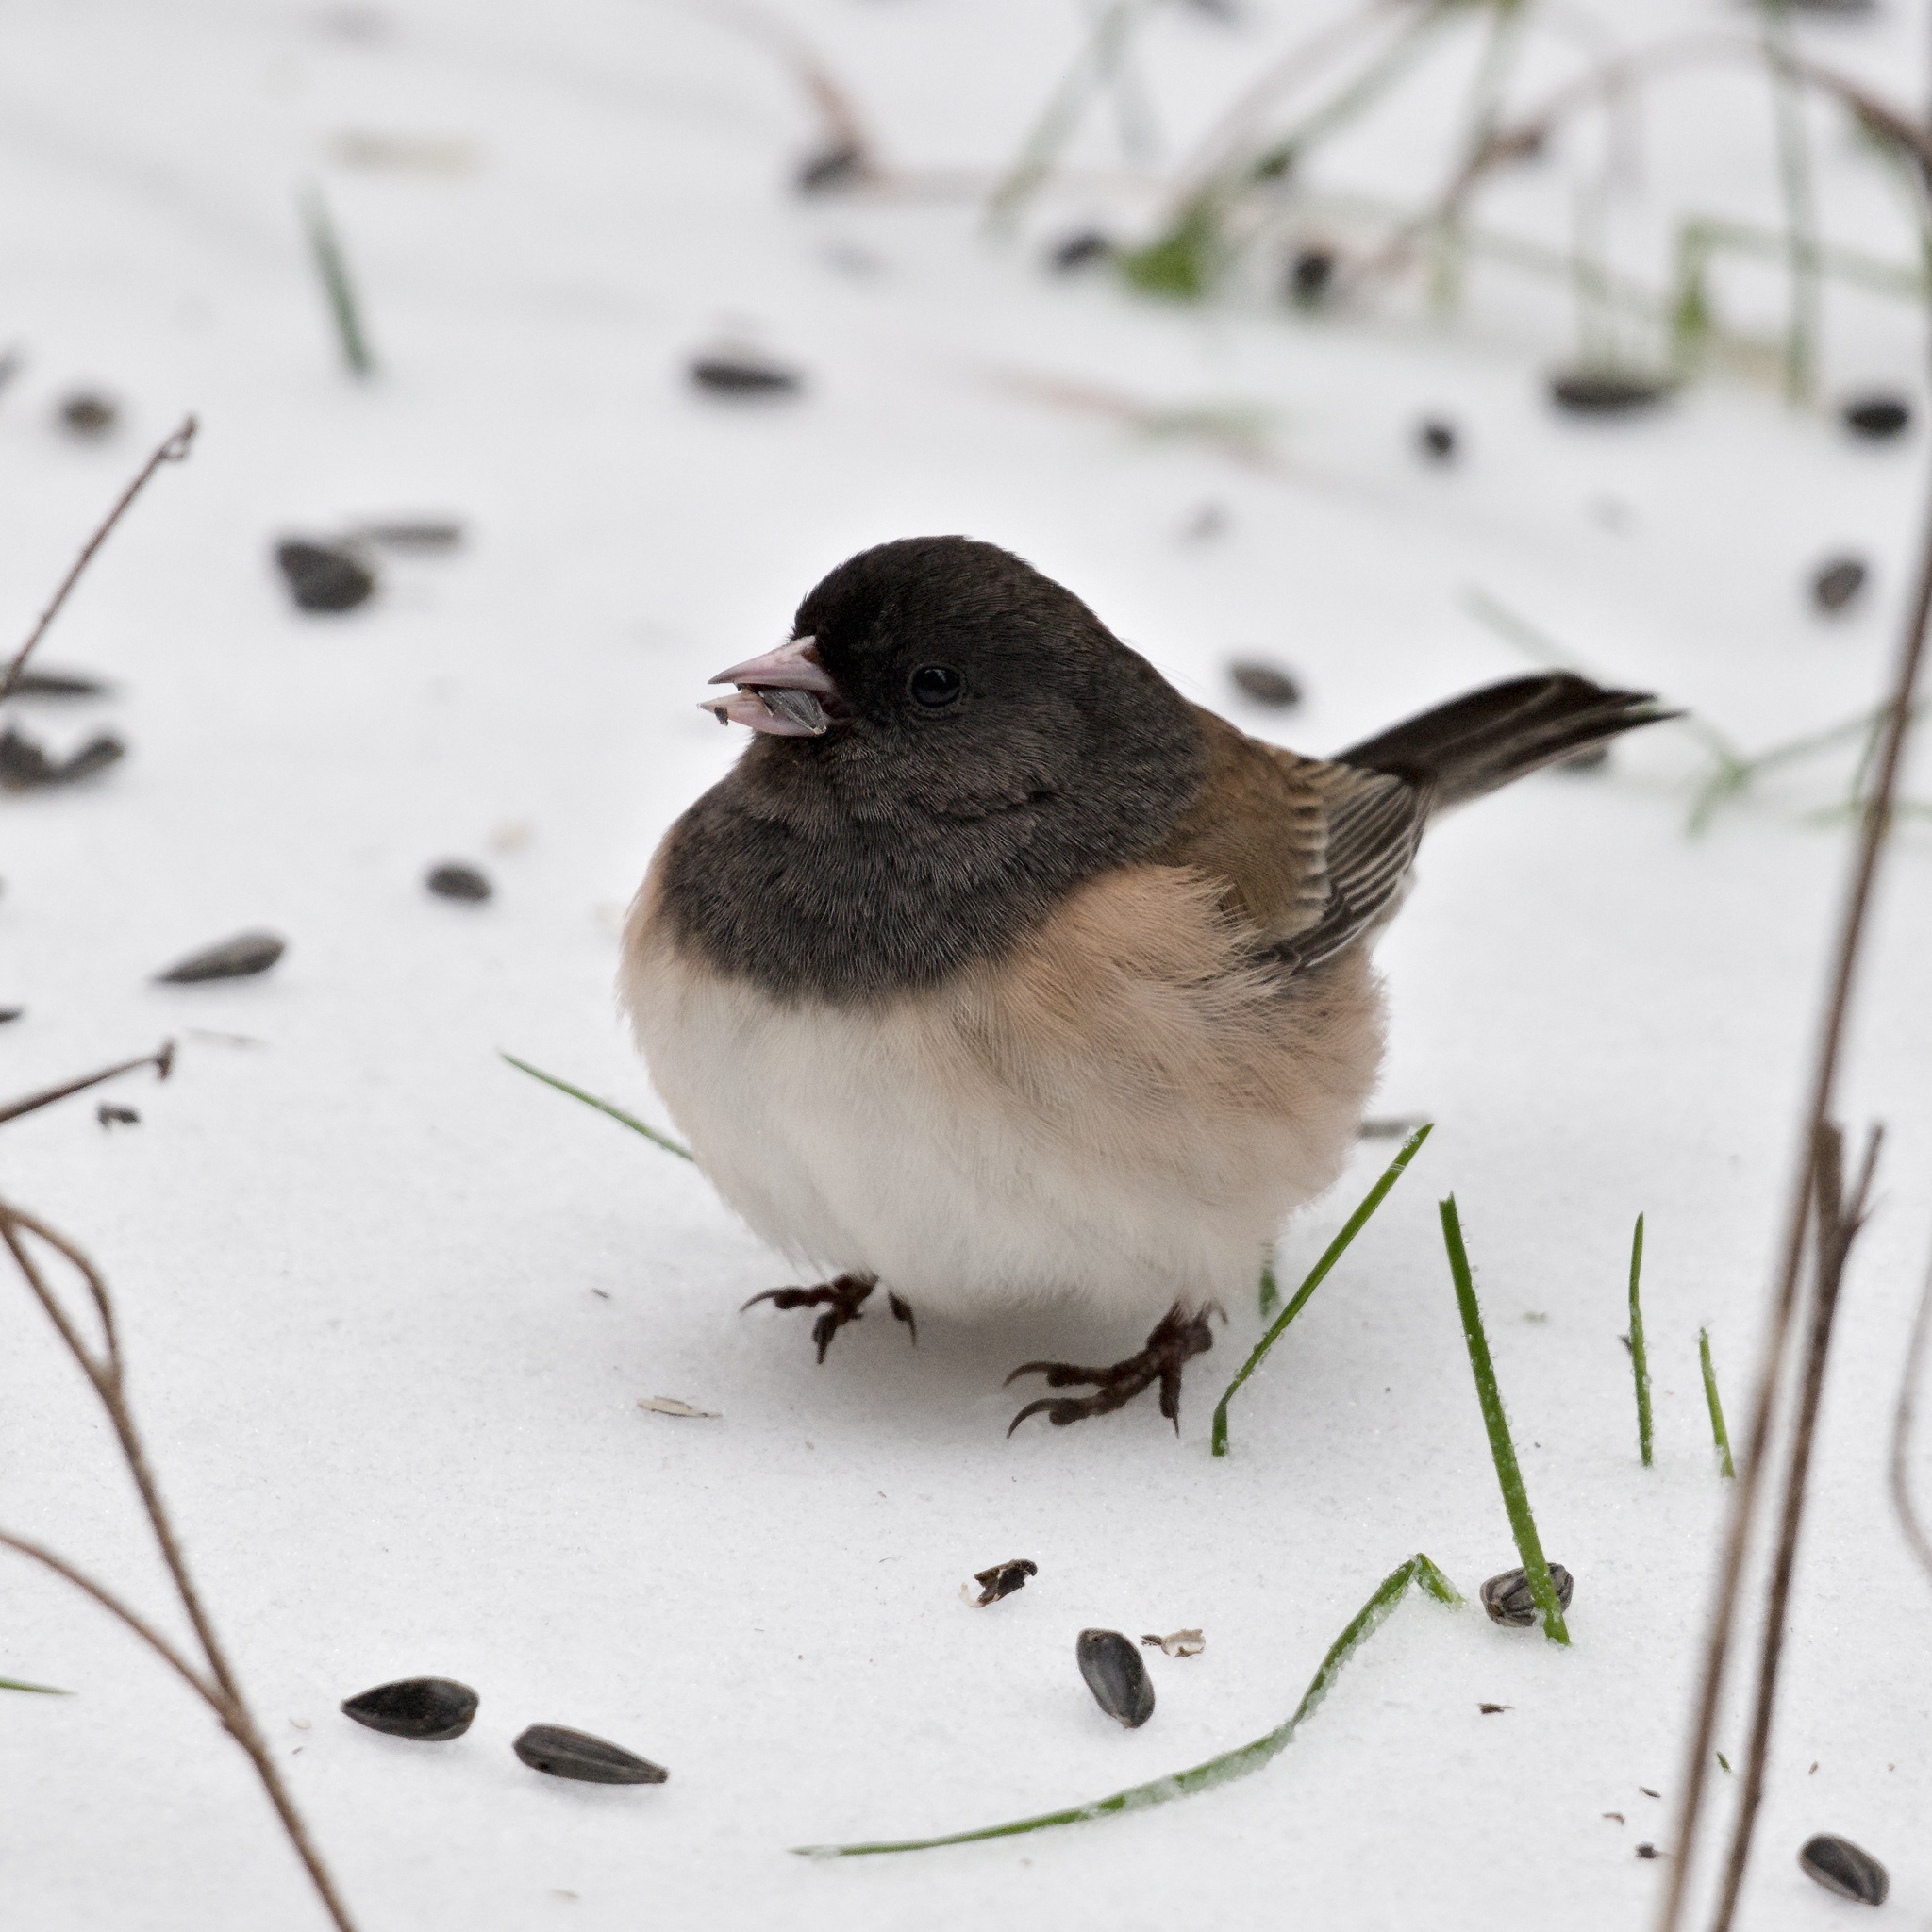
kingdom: Animalia
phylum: Chordata
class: Aves
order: Passeriformes
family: Passerellidae
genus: Junco
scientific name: Junco hyemalis
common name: Dark-eyed junco
